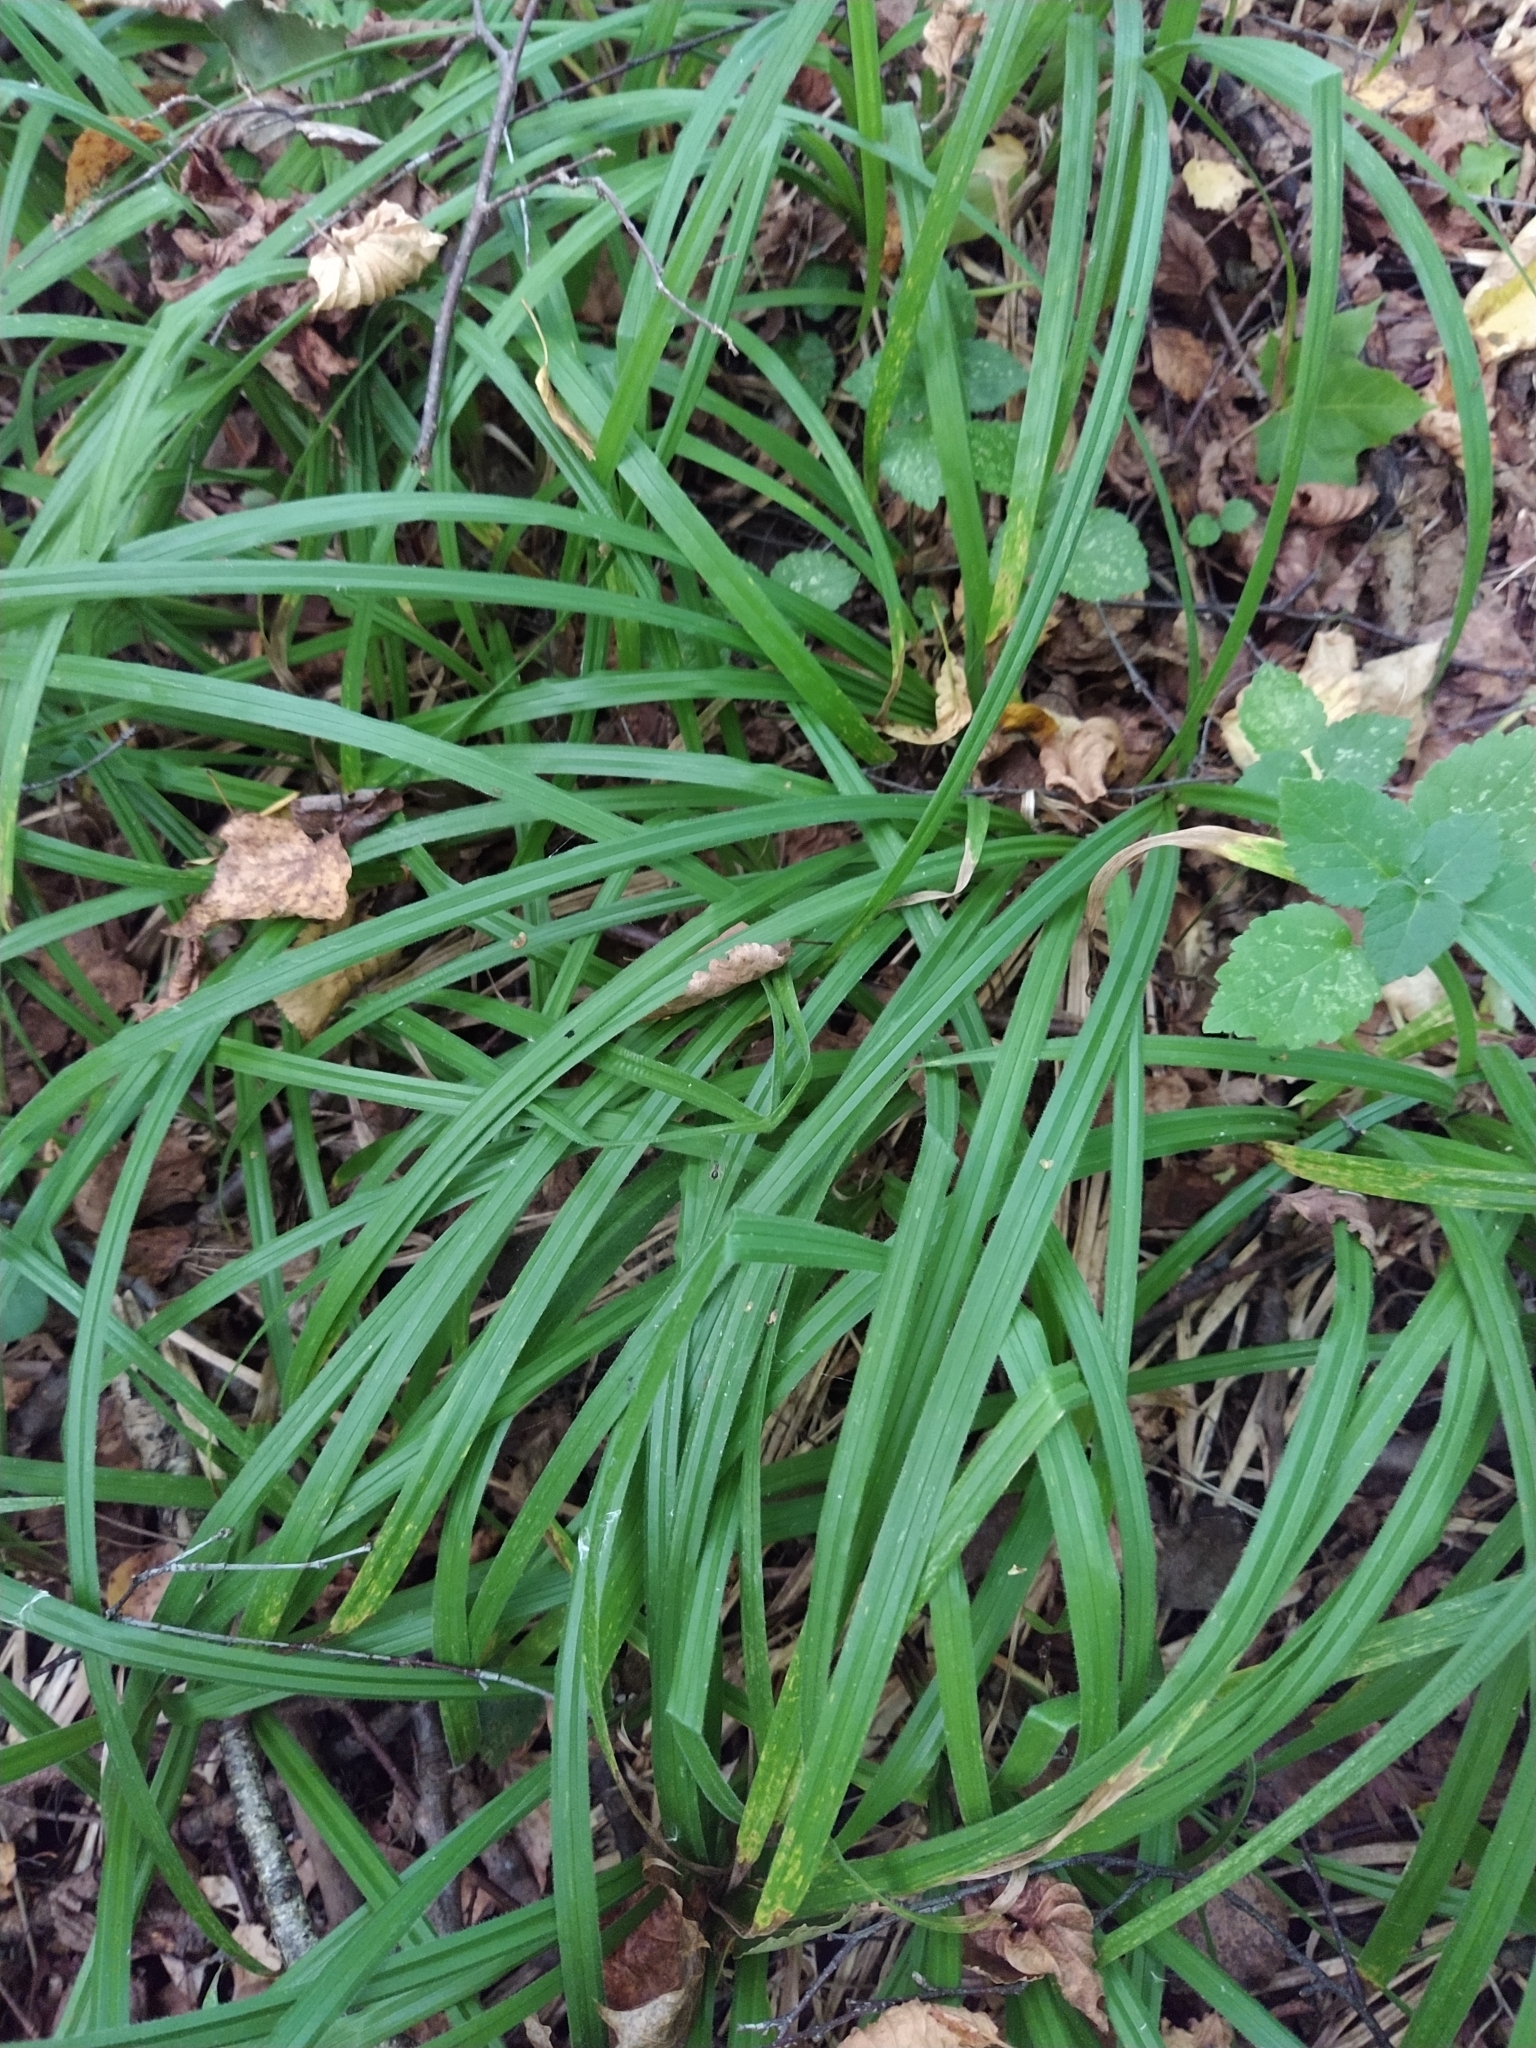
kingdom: Plantae
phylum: Tracheophyta
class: Liliopsida
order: Poales
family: Cyperaceae
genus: Carex
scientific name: Carex pilosa
